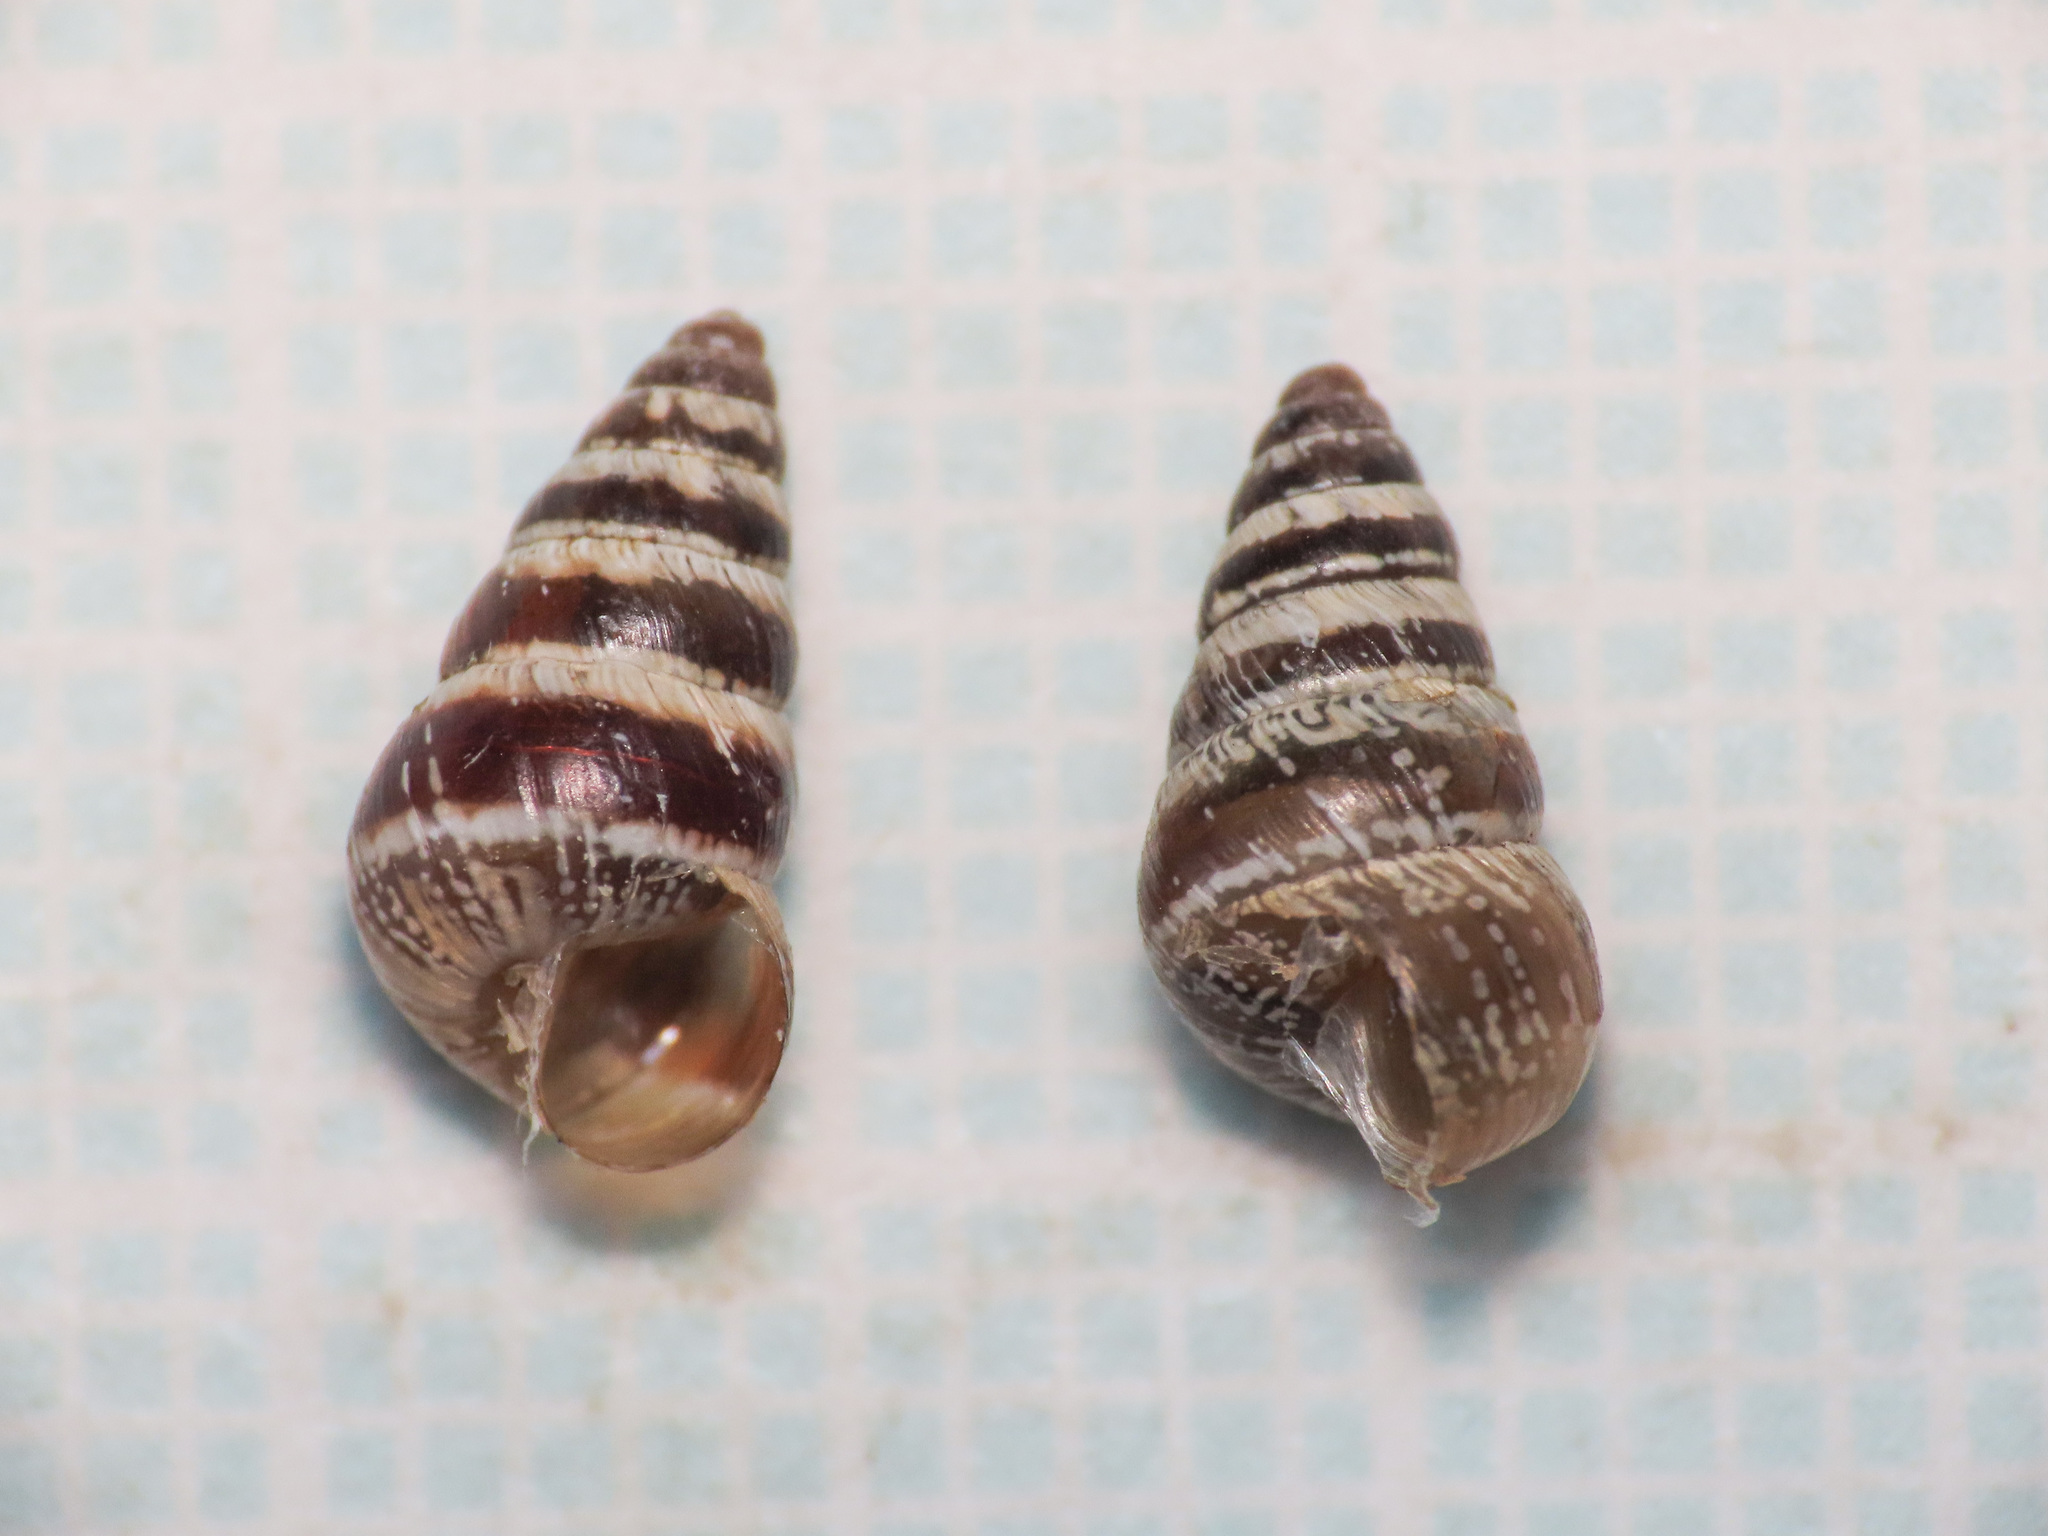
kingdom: Animalia
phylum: Mollusca
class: Gastropoda
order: Stylommatophora
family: Geomitridae
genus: Cochlicella
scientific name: Cochlicella barbara
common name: Potbellied helicellid
